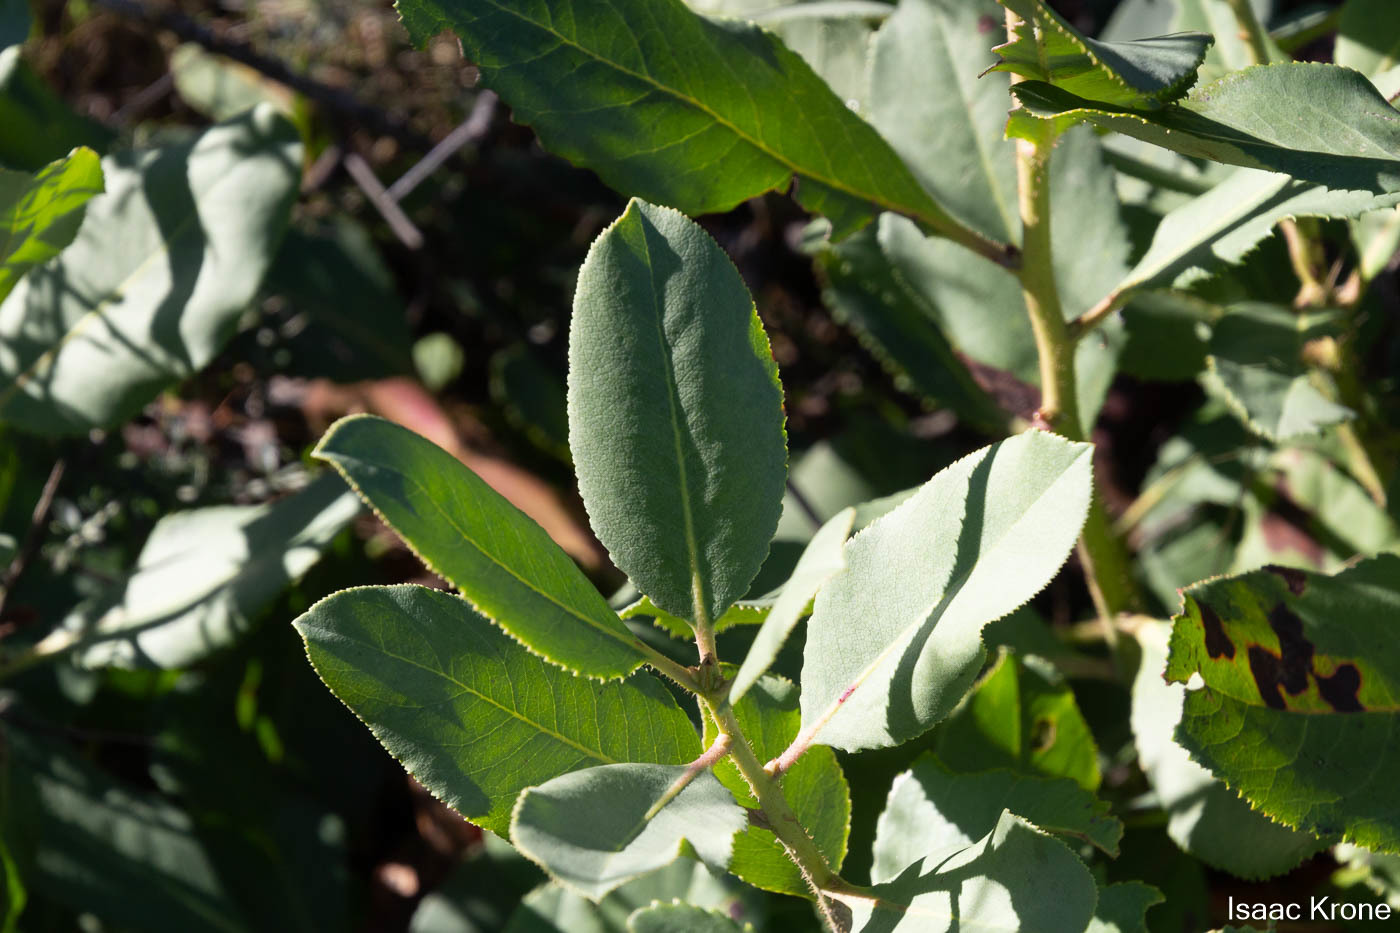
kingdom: Plantae
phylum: Tracheophyta
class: Magnoliopsida
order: Ericales
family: Ericaceae
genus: Arbutus
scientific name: Arbutus menziesii
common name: Pacific madrone
